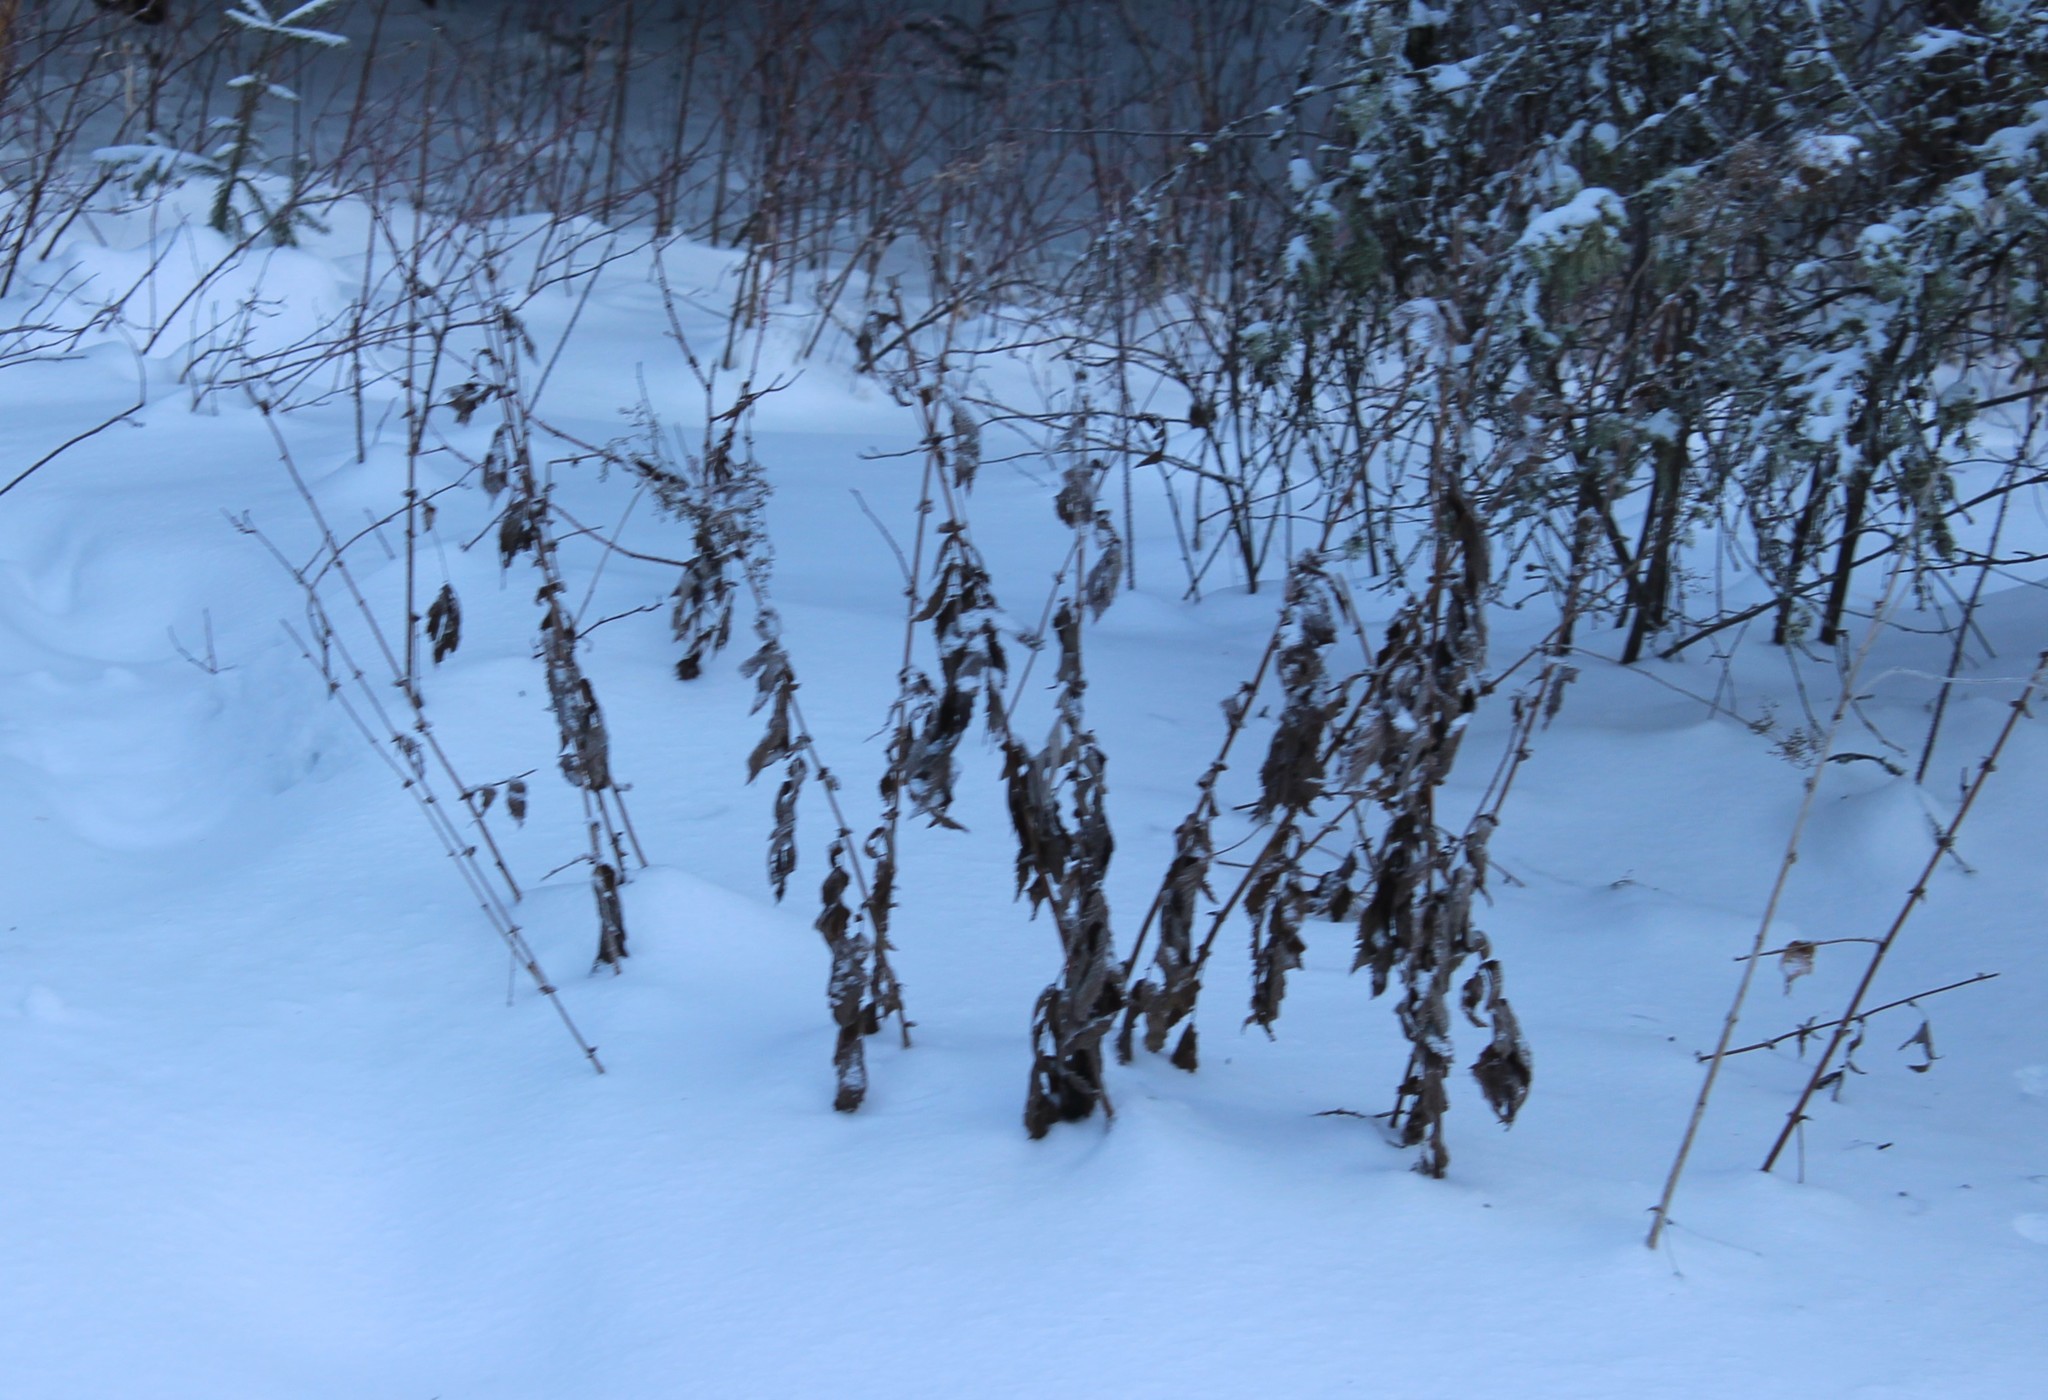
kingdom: Plantae
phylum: Tracheophyta
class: Magnoliopsida
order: Rosales
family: Rosaceae
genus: Filipendula
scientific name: Filipendula ulmaria
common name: Meadowsweet
